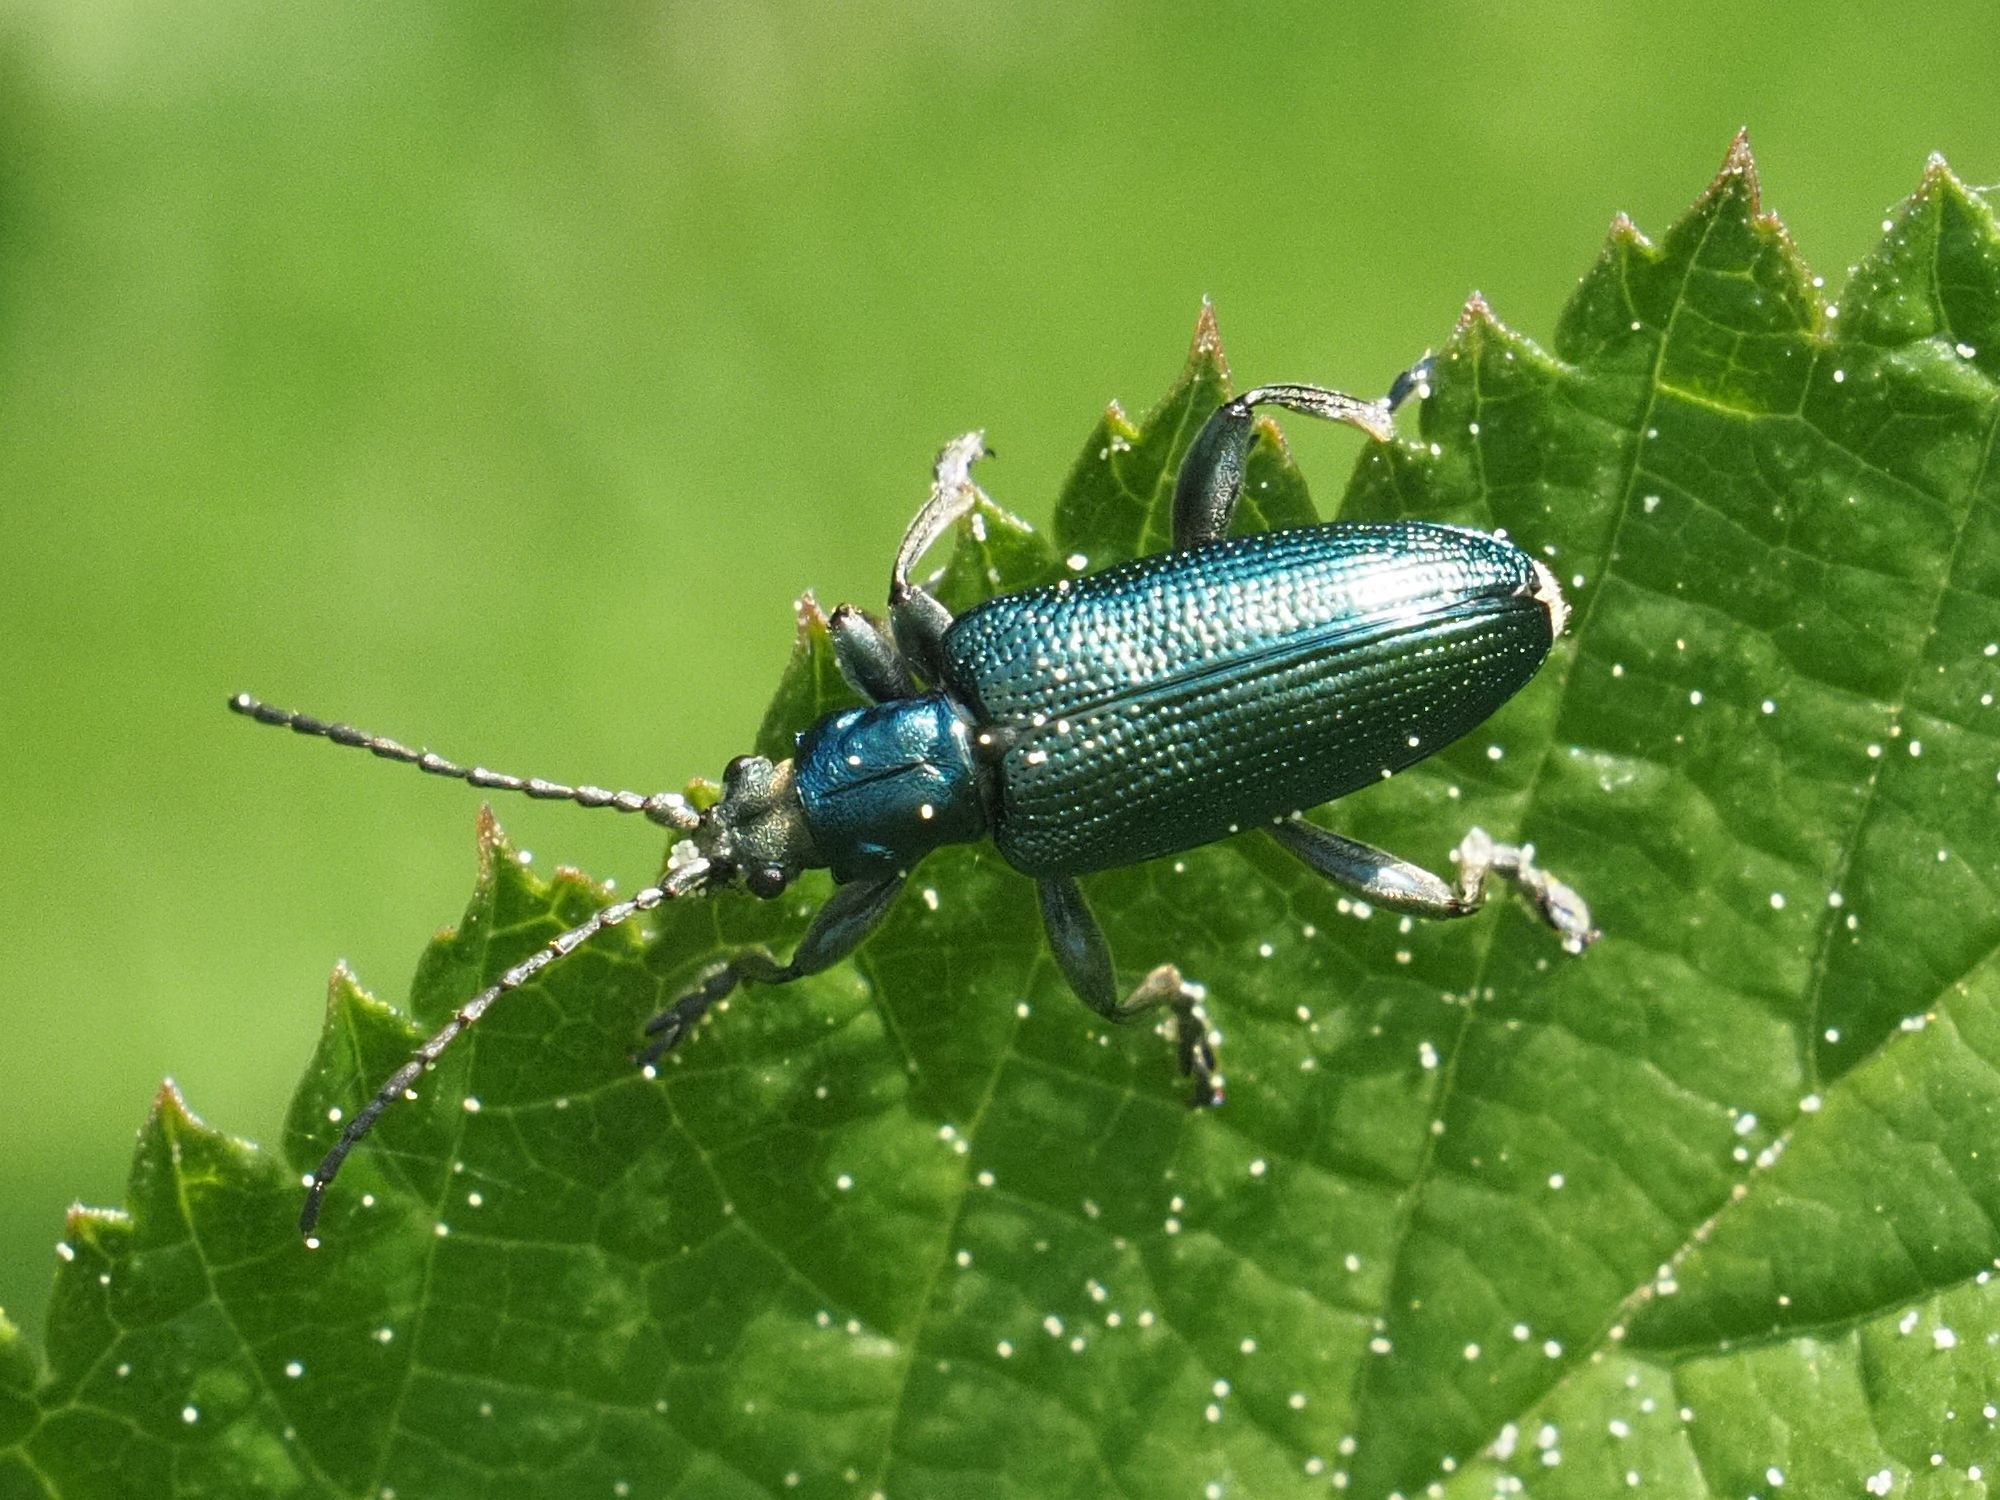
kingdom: Animalia
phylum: Arthropoda
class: Insecta
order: Coleoptera
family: Chrysomelidae
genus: Plateumaris
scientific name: Plateumaris sericea
